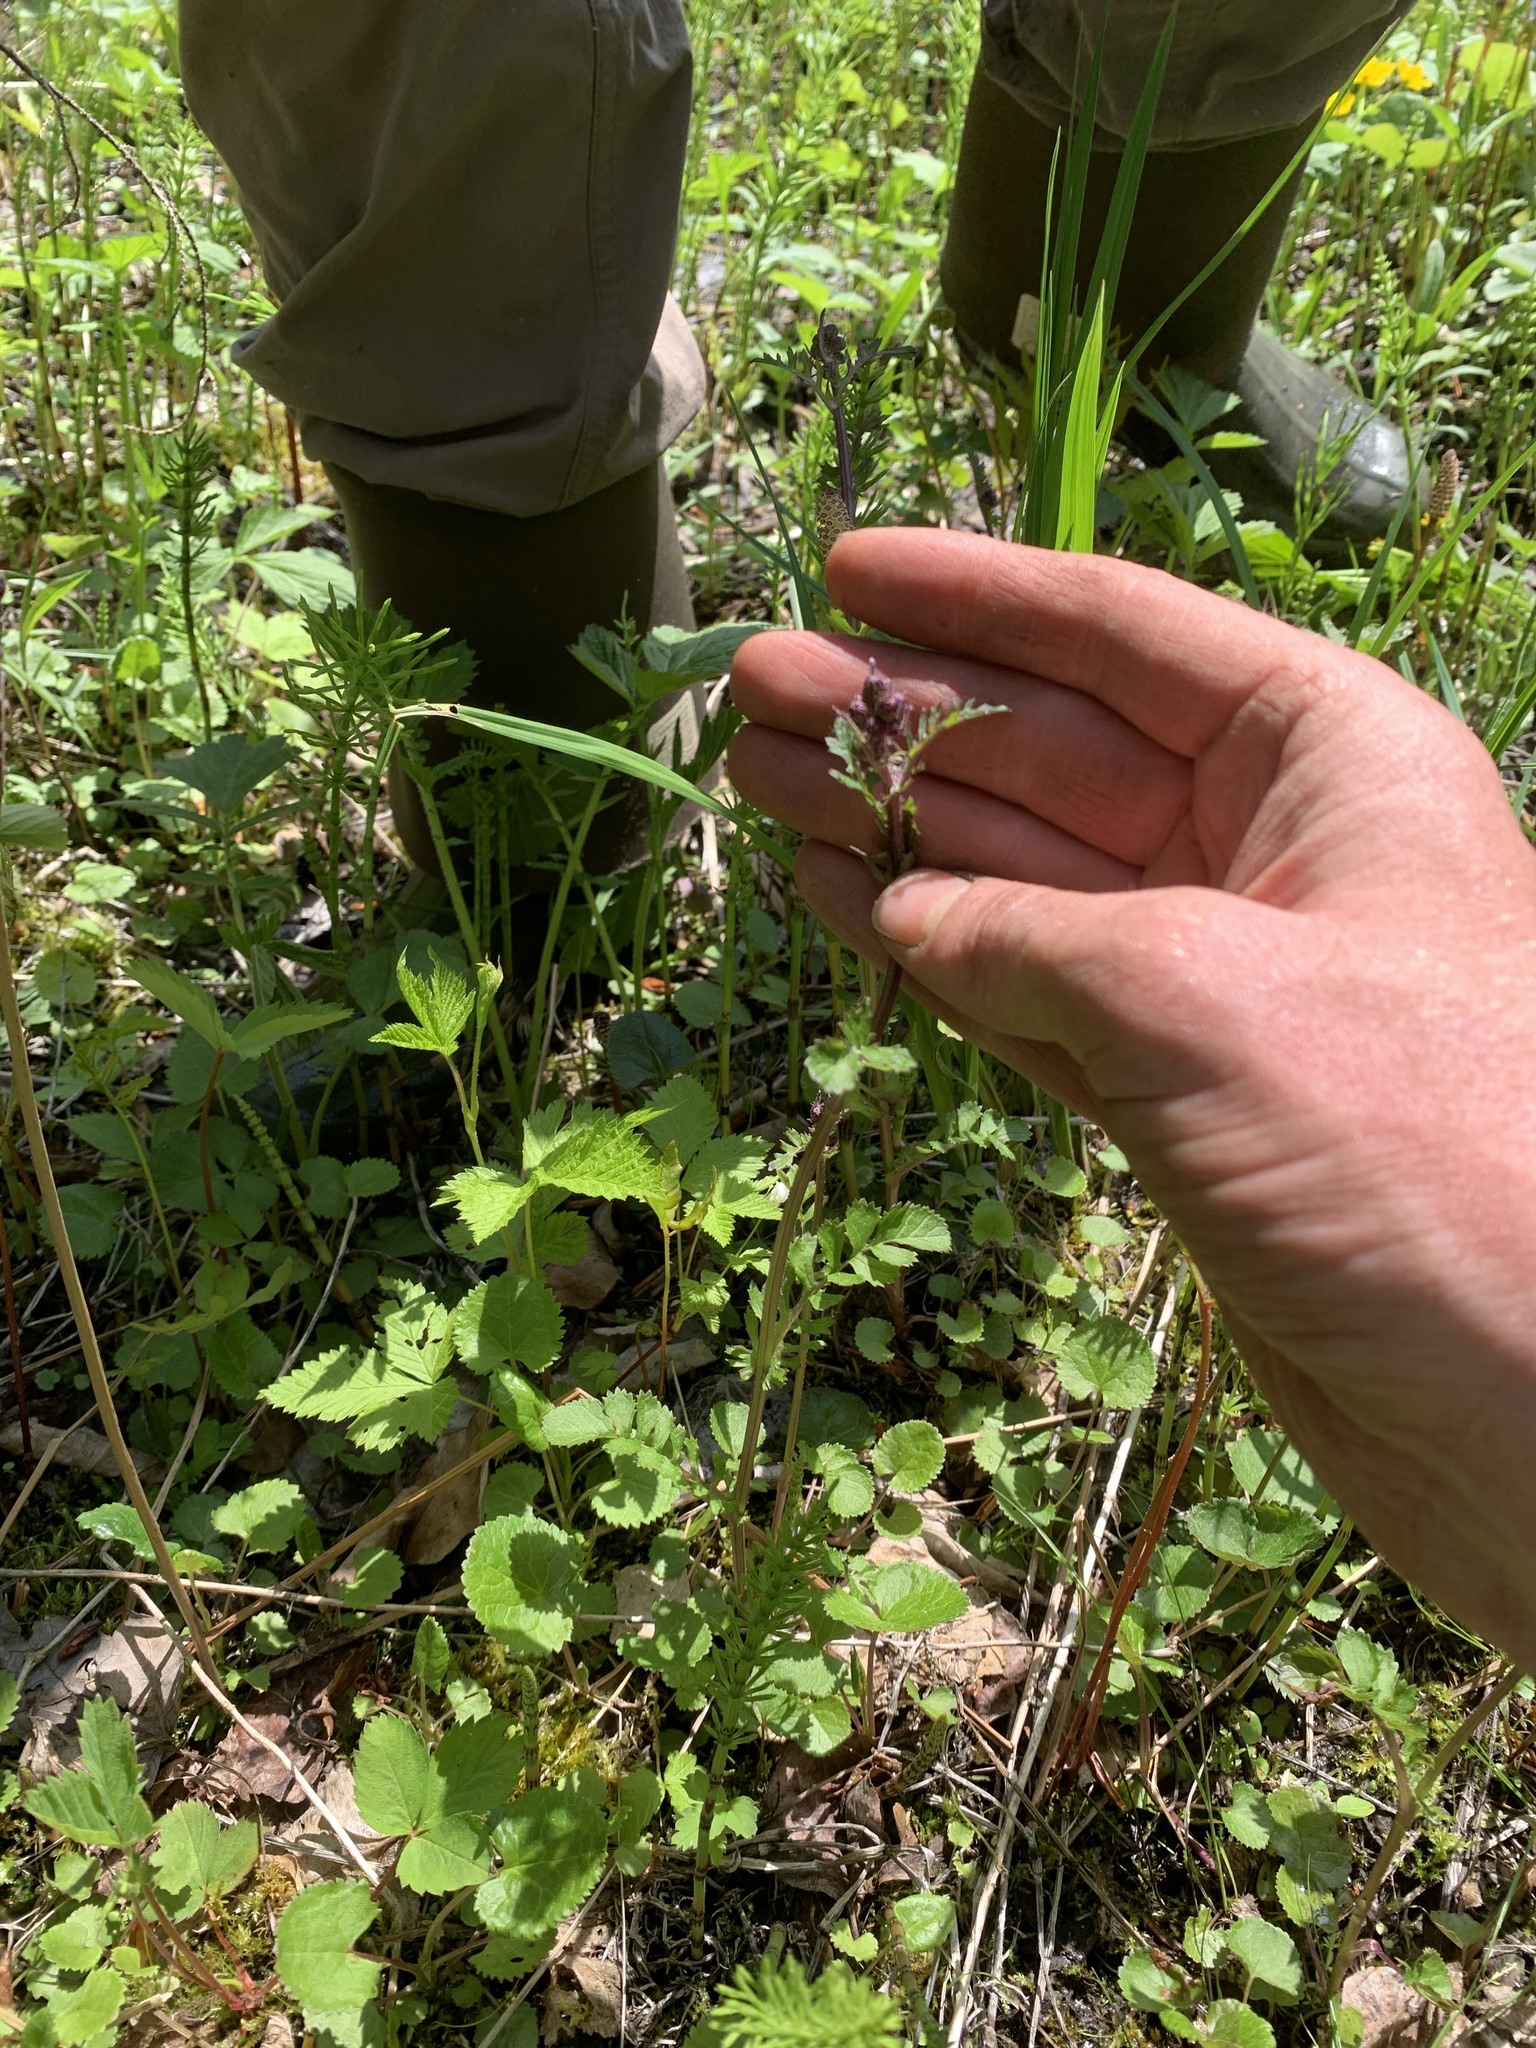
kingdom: Plantae
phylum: Tracheophyta
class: Magnoliopsida
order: Asterales
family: Asteraceae
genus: Packera
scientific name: Packera aurea
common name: Golden groundsel
